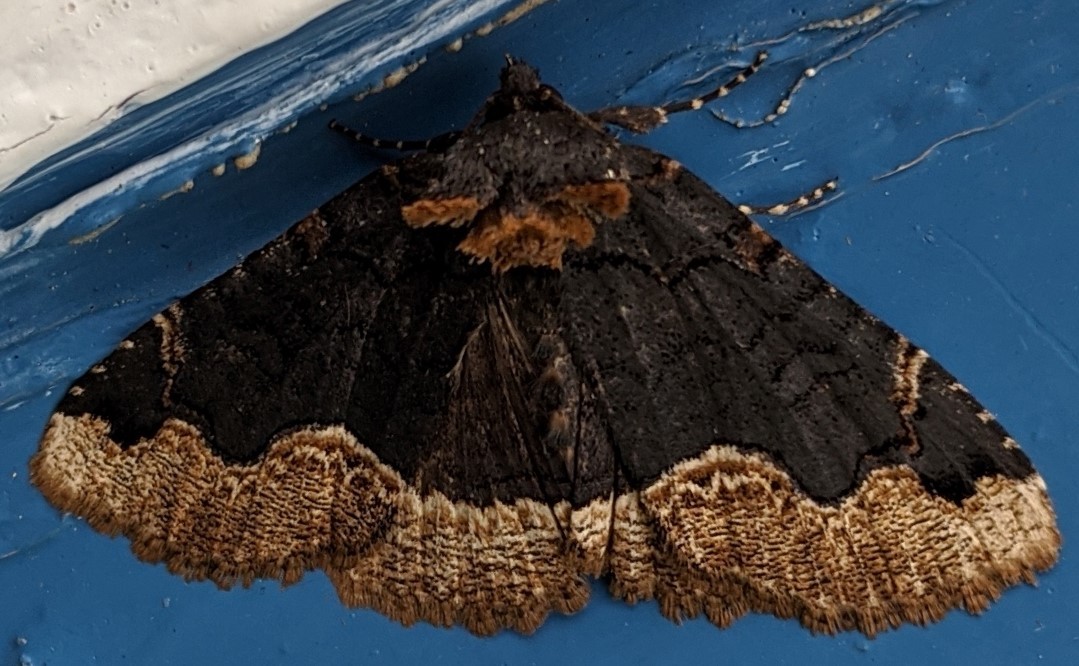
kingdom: Animalia
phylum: Arthropoda
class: Insecta
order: Lepidoptera
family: Erebidae
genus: Zale
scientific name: Zale horrida
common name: Horrid zale moth
